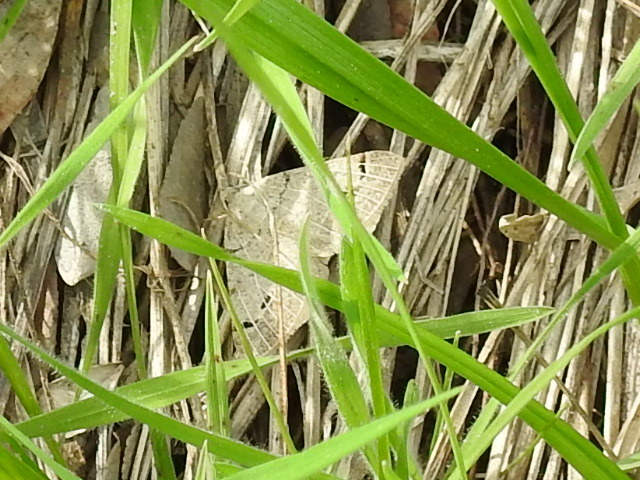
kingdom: Animalia
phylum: Arthropoda
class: Insecta
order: Lepidoptera
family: Geometridae
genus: Isturgia
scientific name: Isturgia dislocaria
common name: Pale-viened enconista
